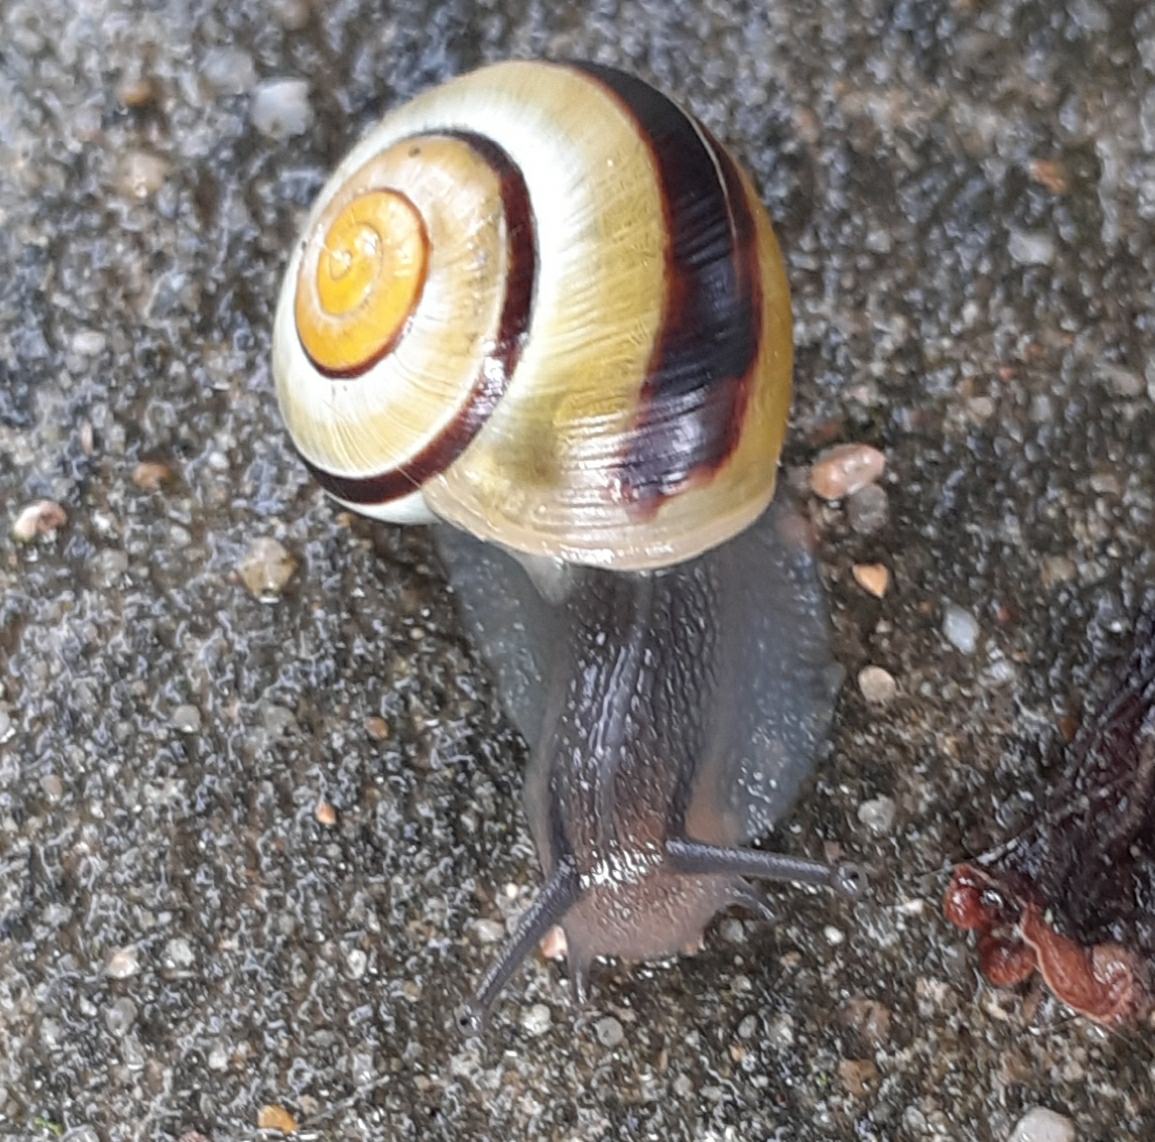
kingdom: Animalia
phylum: Mollusca
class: Gastropoda
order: Stylommatophora
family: Helicidae
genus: Cepaea
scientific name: Cepaea
